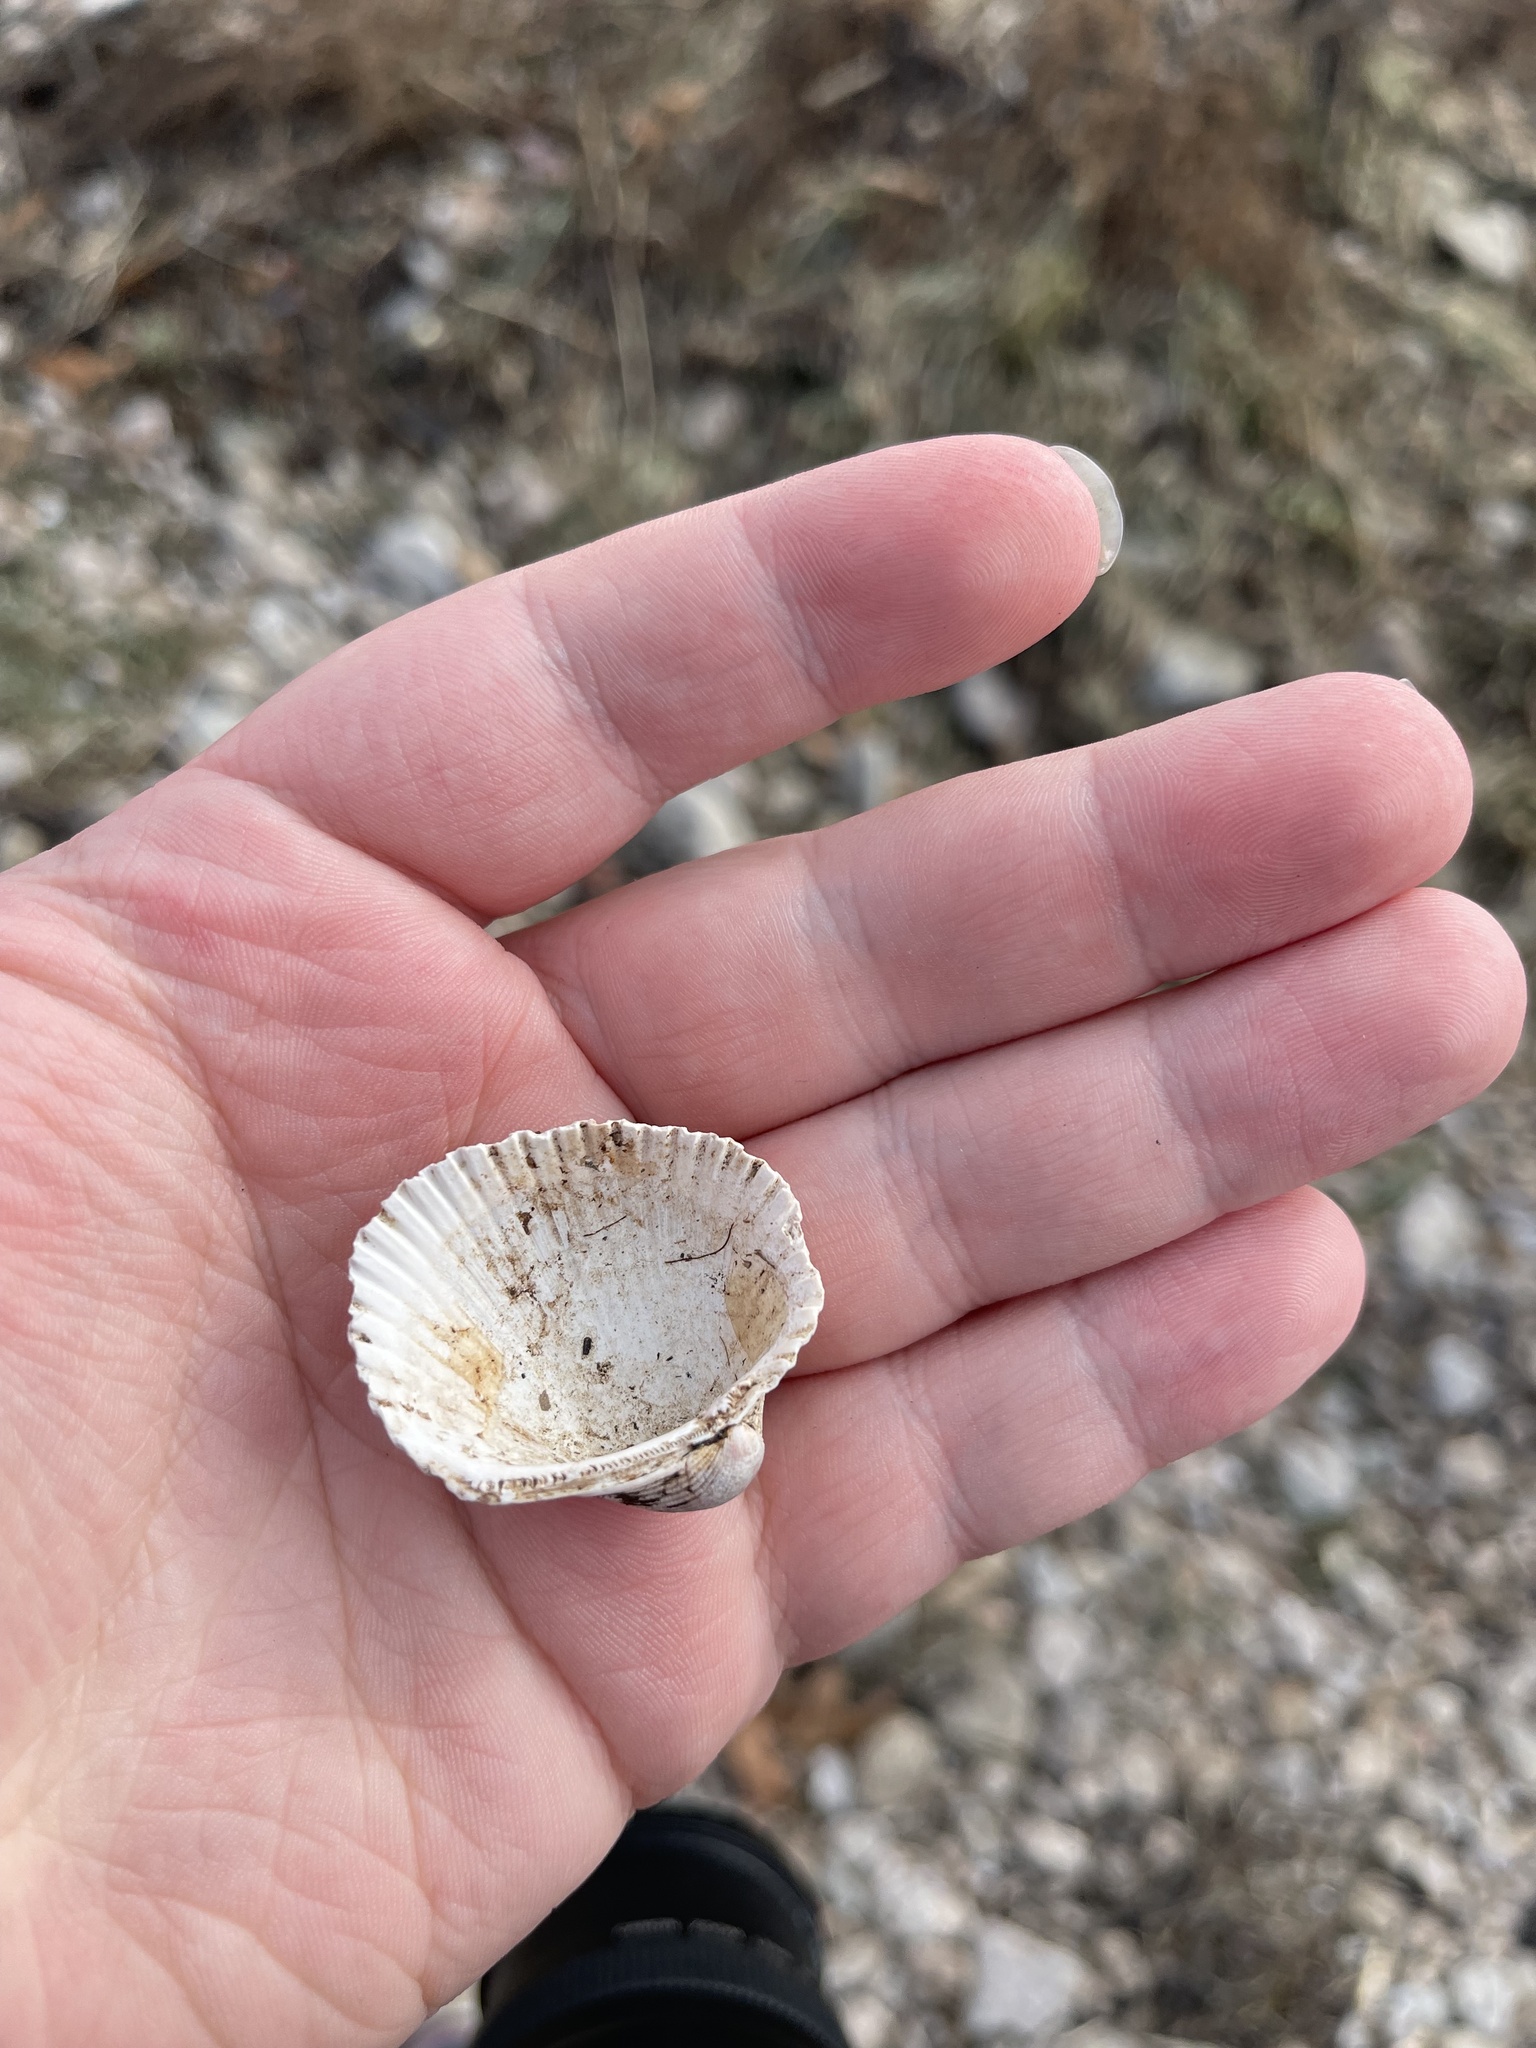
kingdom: Animalia
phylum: Mollusca
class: Bivalvia
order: Arcida
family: Arcidae
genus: Lunarca
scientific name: Lunarca ovalis
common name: Blood ark
